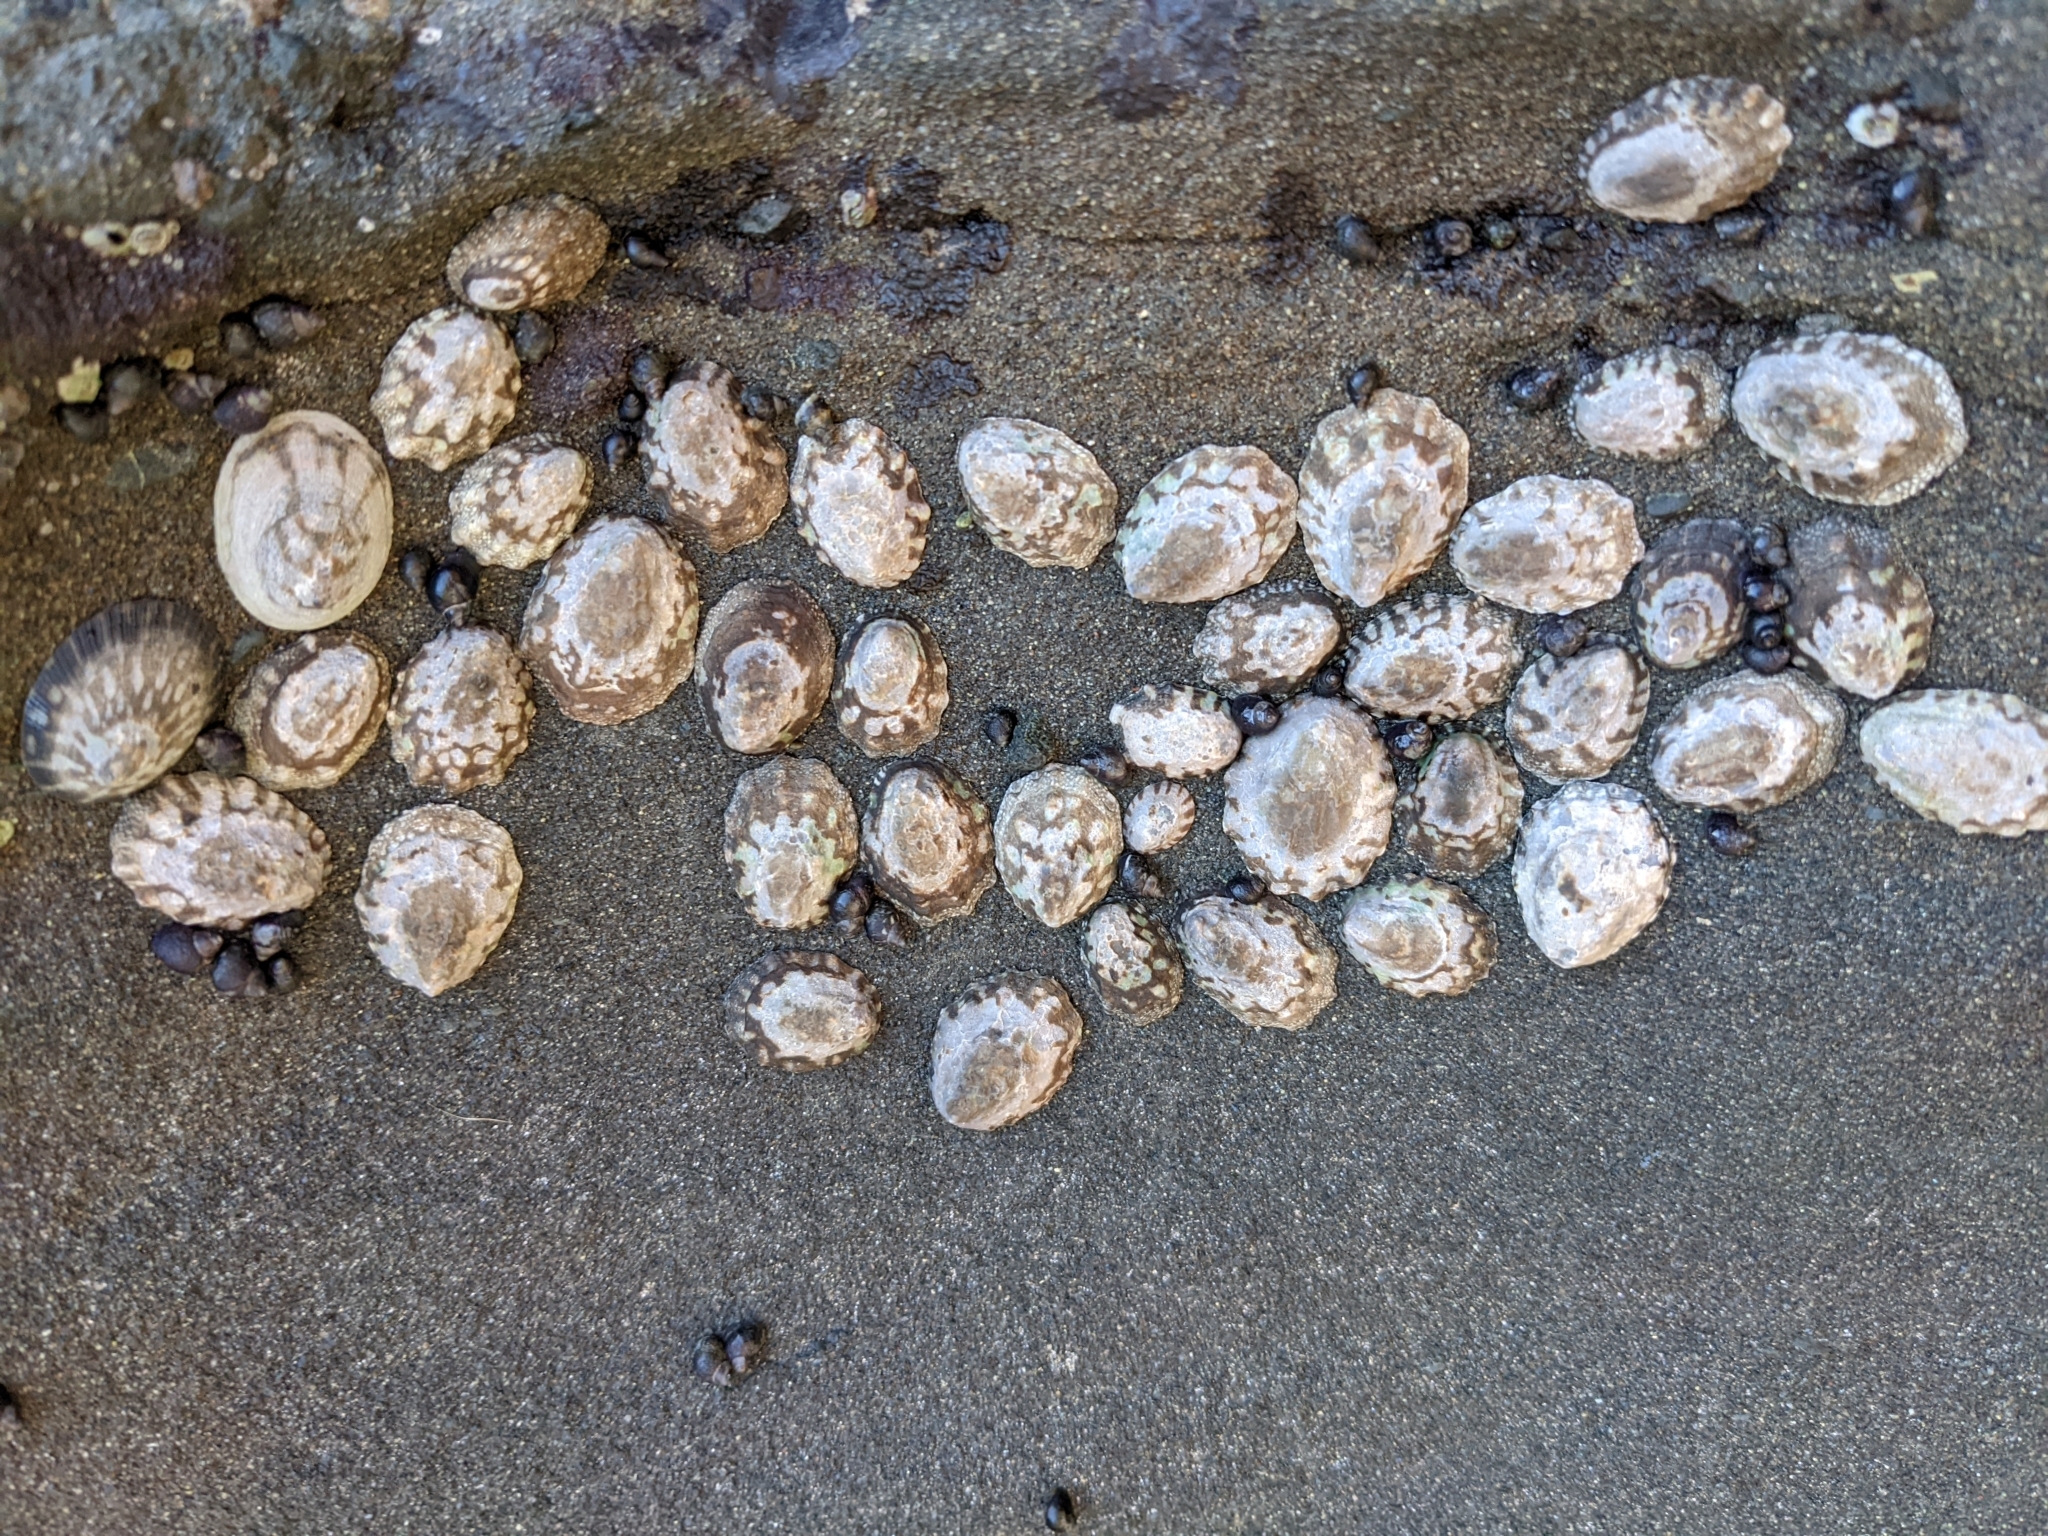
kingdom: Animalia
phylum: Mollusca
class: Gastropoda
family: Lottiidae
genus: Lottia
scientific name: Lottia digitalis
